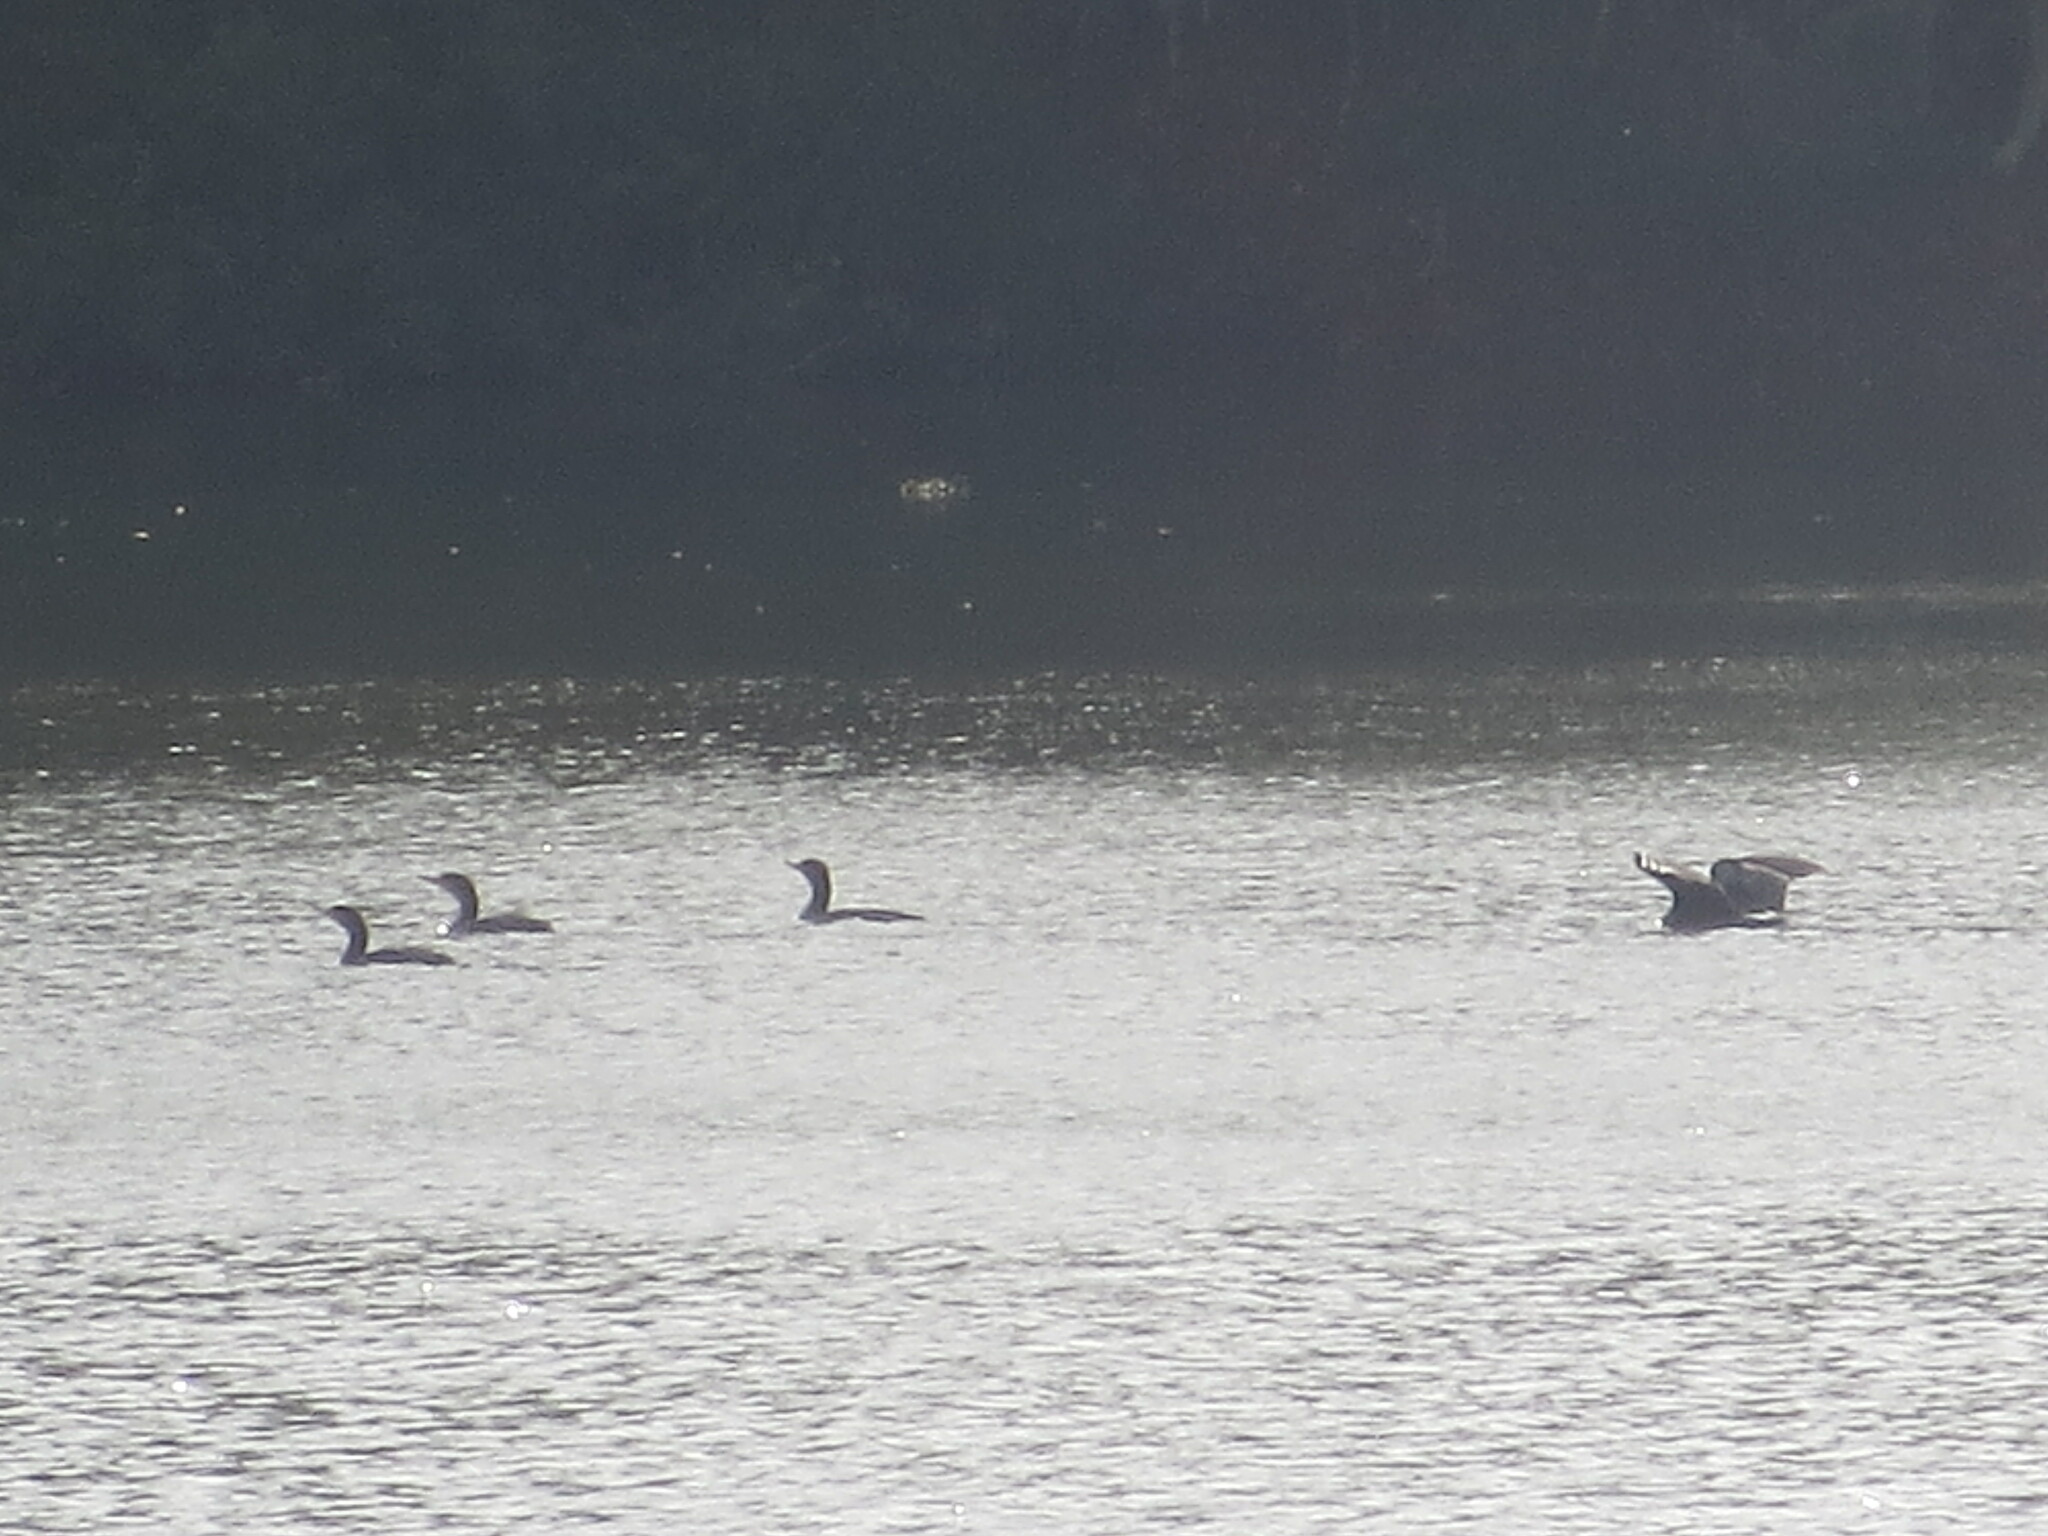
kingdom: Animalia
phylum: Chordata
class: Aves
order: Suliformes
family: Phalacrocoracidae
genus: Phalacrocorax
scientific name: Phalacrocorax auritus
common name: Double-crested cormorant
